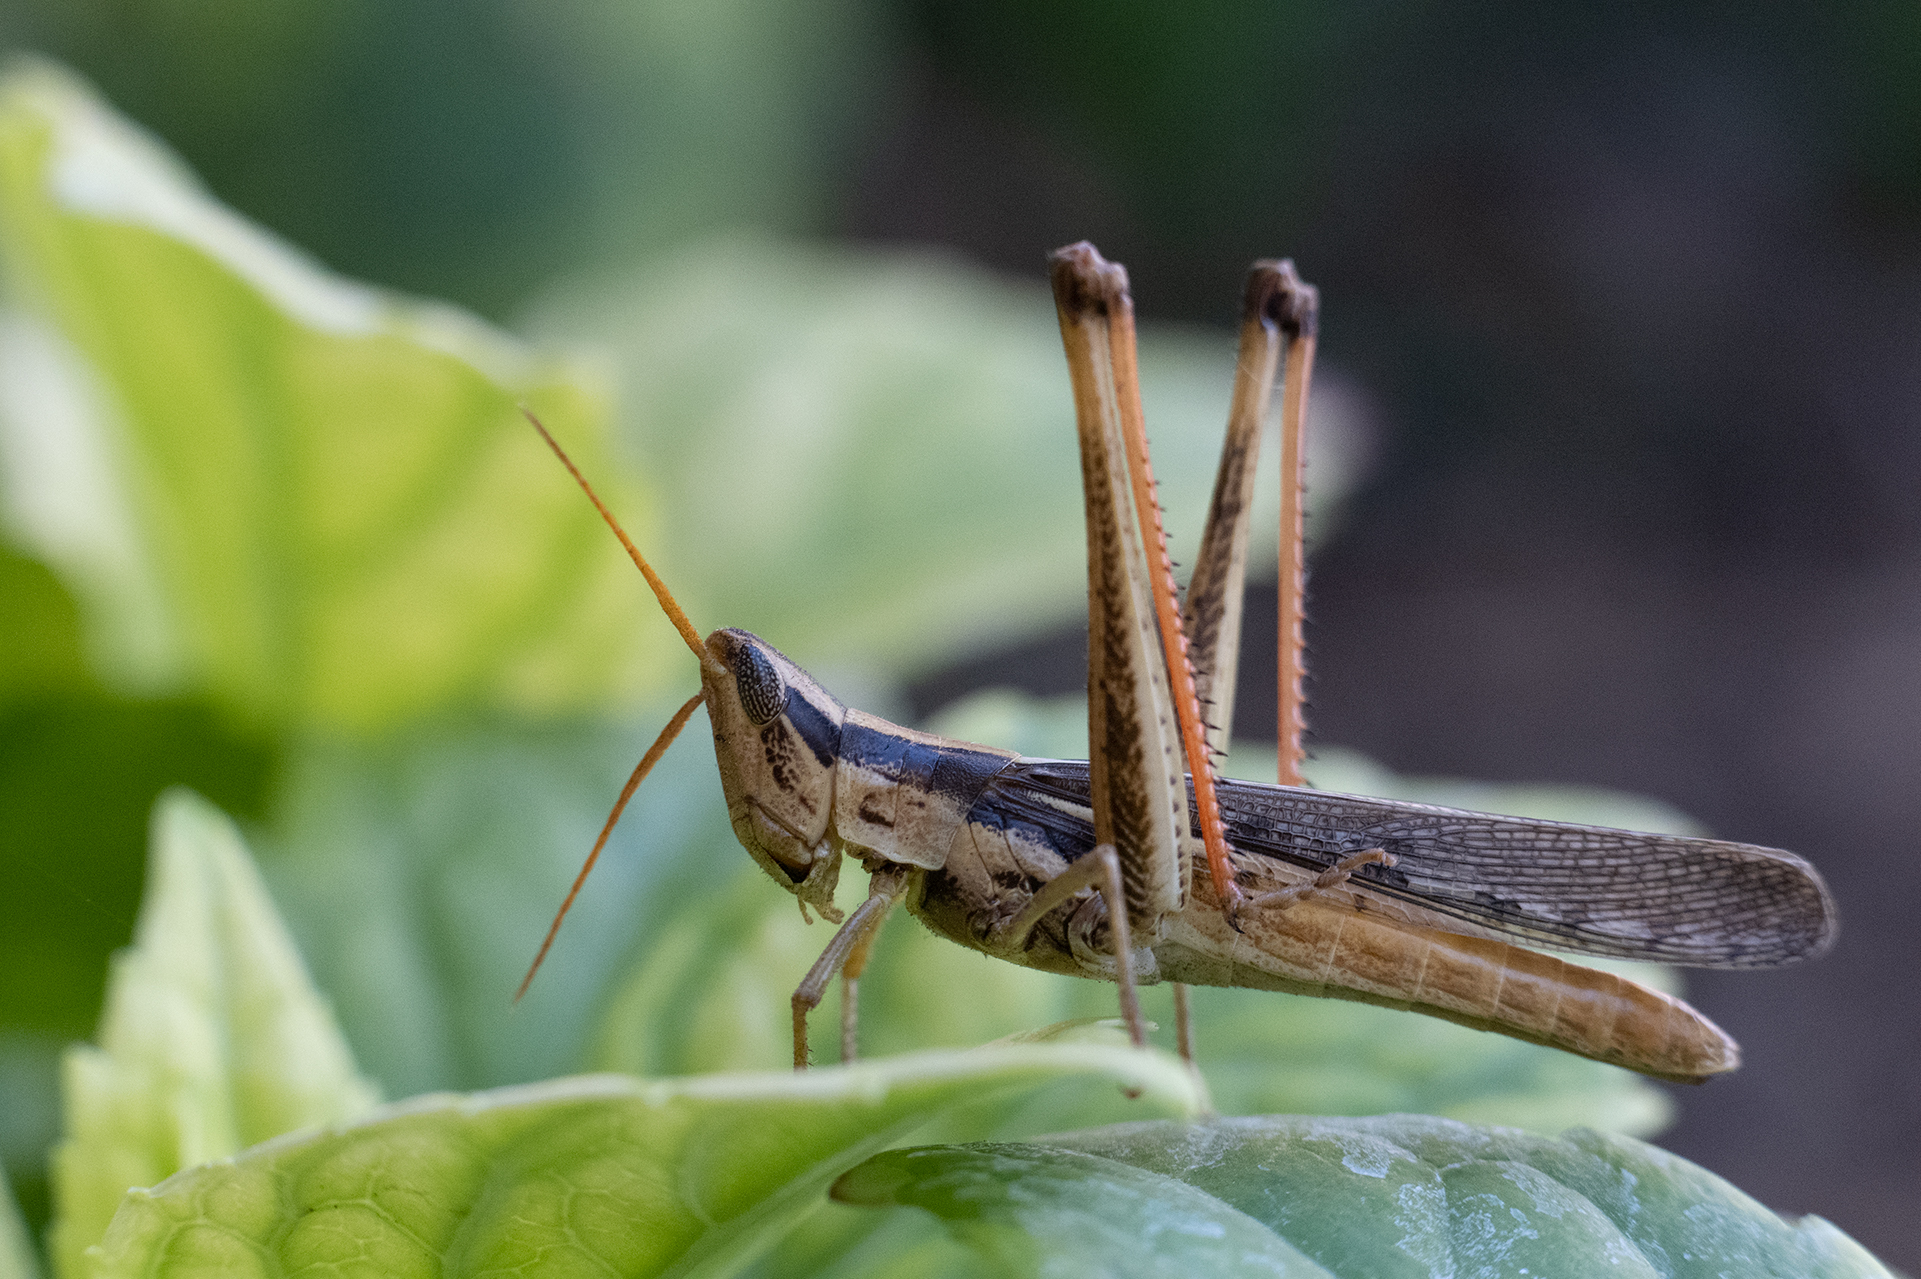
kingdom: Animalia
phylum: Arthropoda
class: Insecta
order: Orthoptera
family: Acrididae
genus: Mermiria
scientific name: Mermiria bivittata
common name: Two-striped mermiria grasshopper
